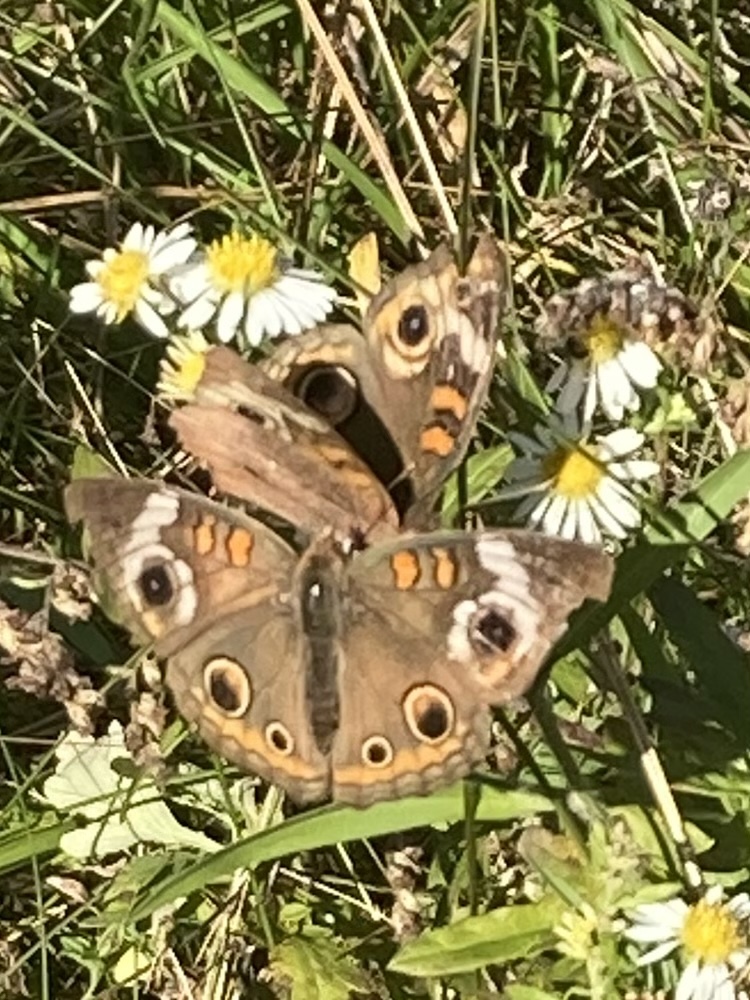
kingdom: Animalia
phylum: Arthropoda
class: Insecta
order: Lepidoptera
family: Nymphalidae
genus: Junonia
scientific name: Junonia coenia
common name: Common buckeye
